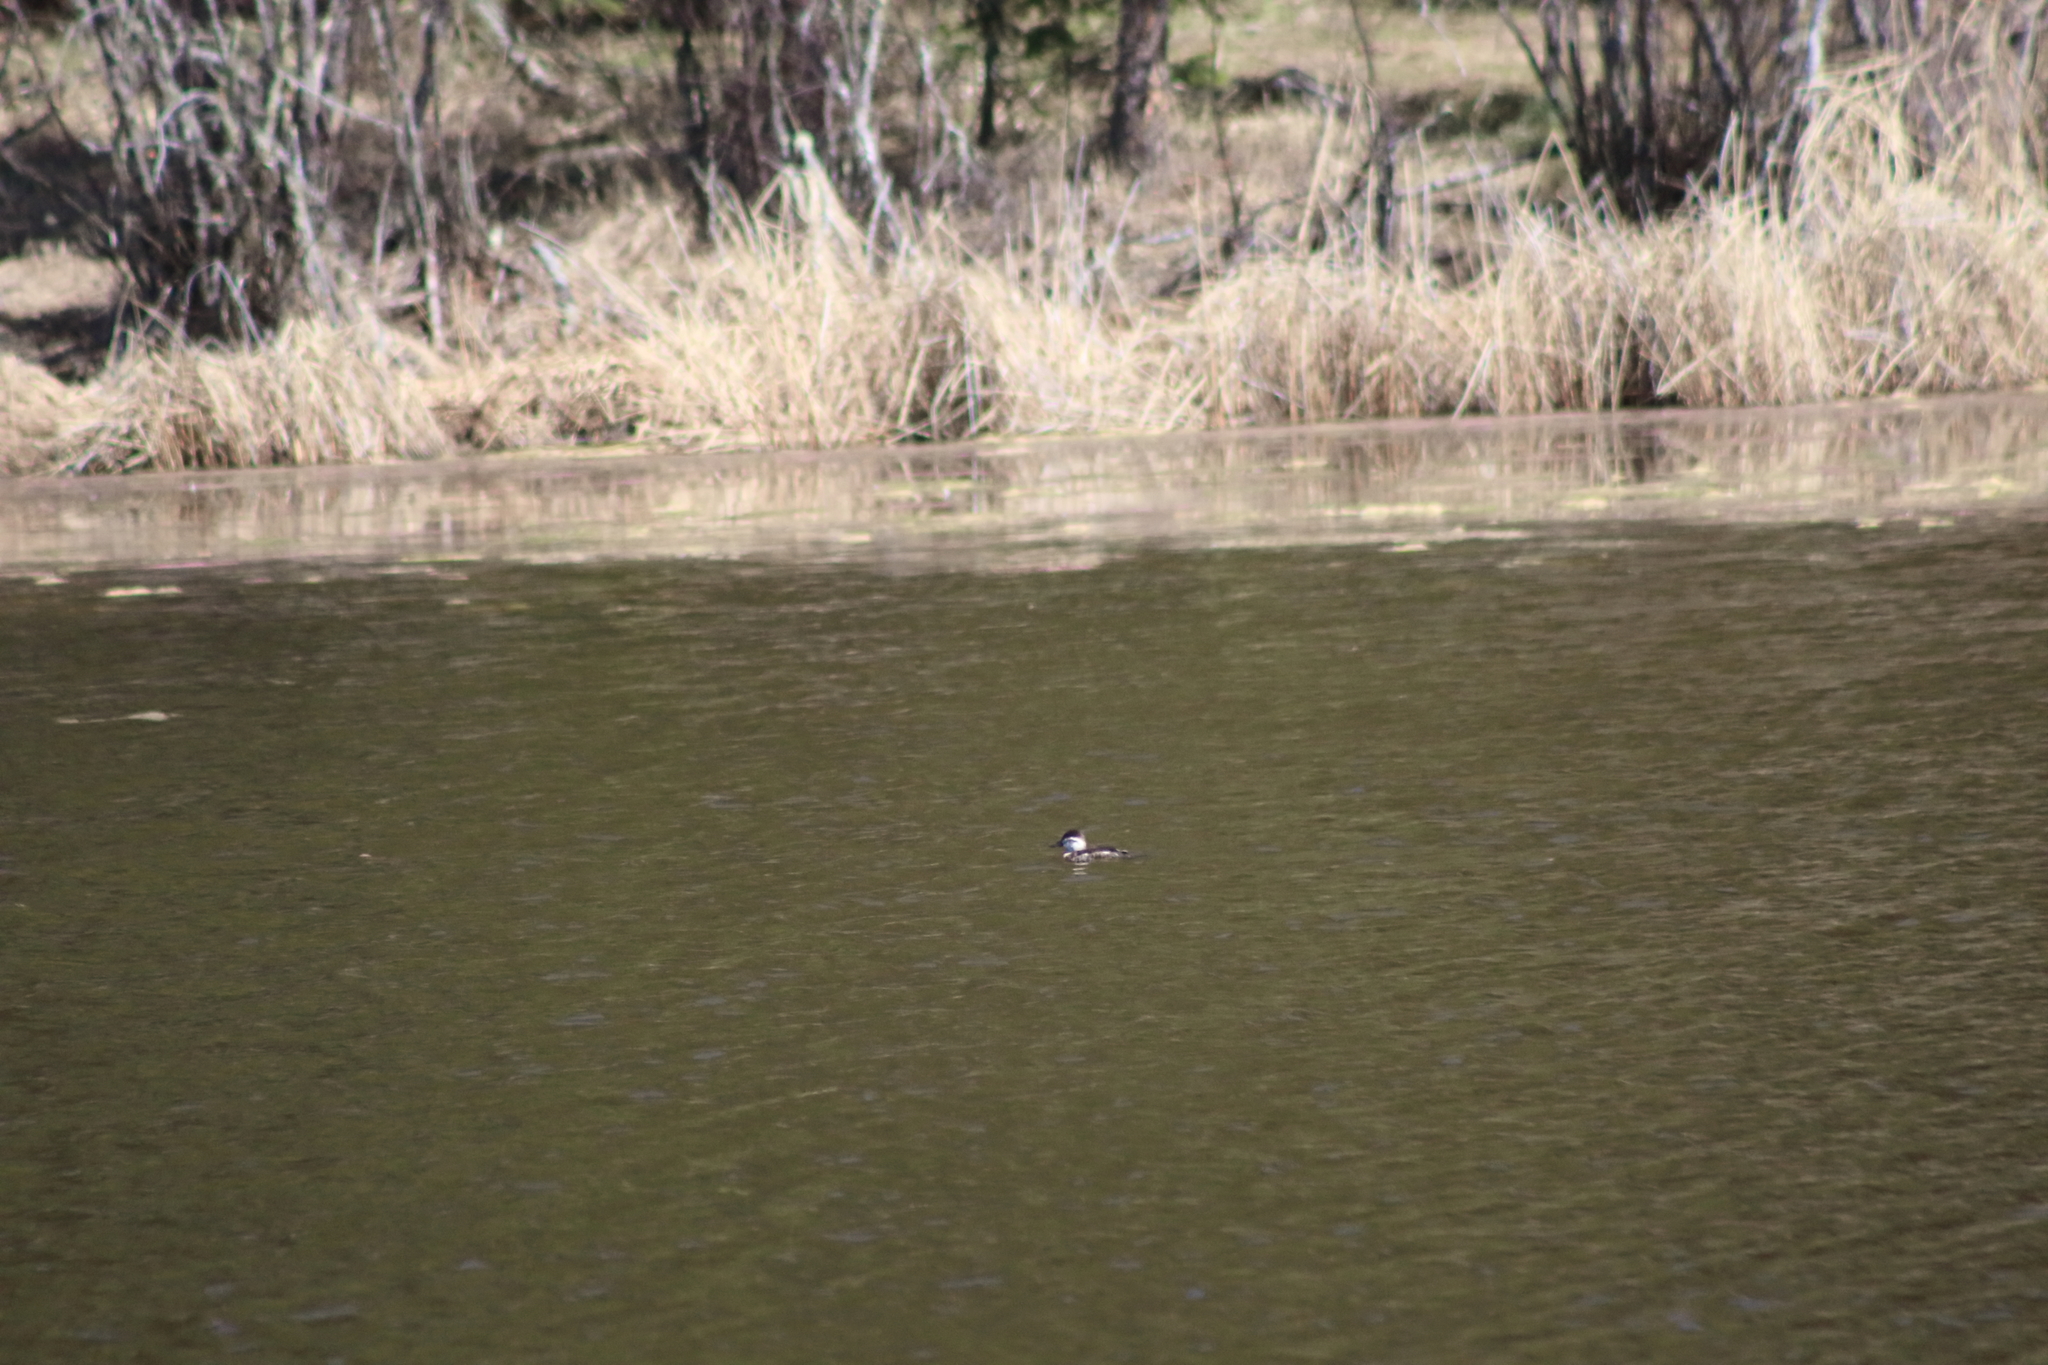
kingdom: Animalia
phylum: Chordata
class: Aves
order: Anseriformes
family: Anatidae
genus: Oxyura
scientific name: Oxyura jamaicensis
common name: Ruddy duck
